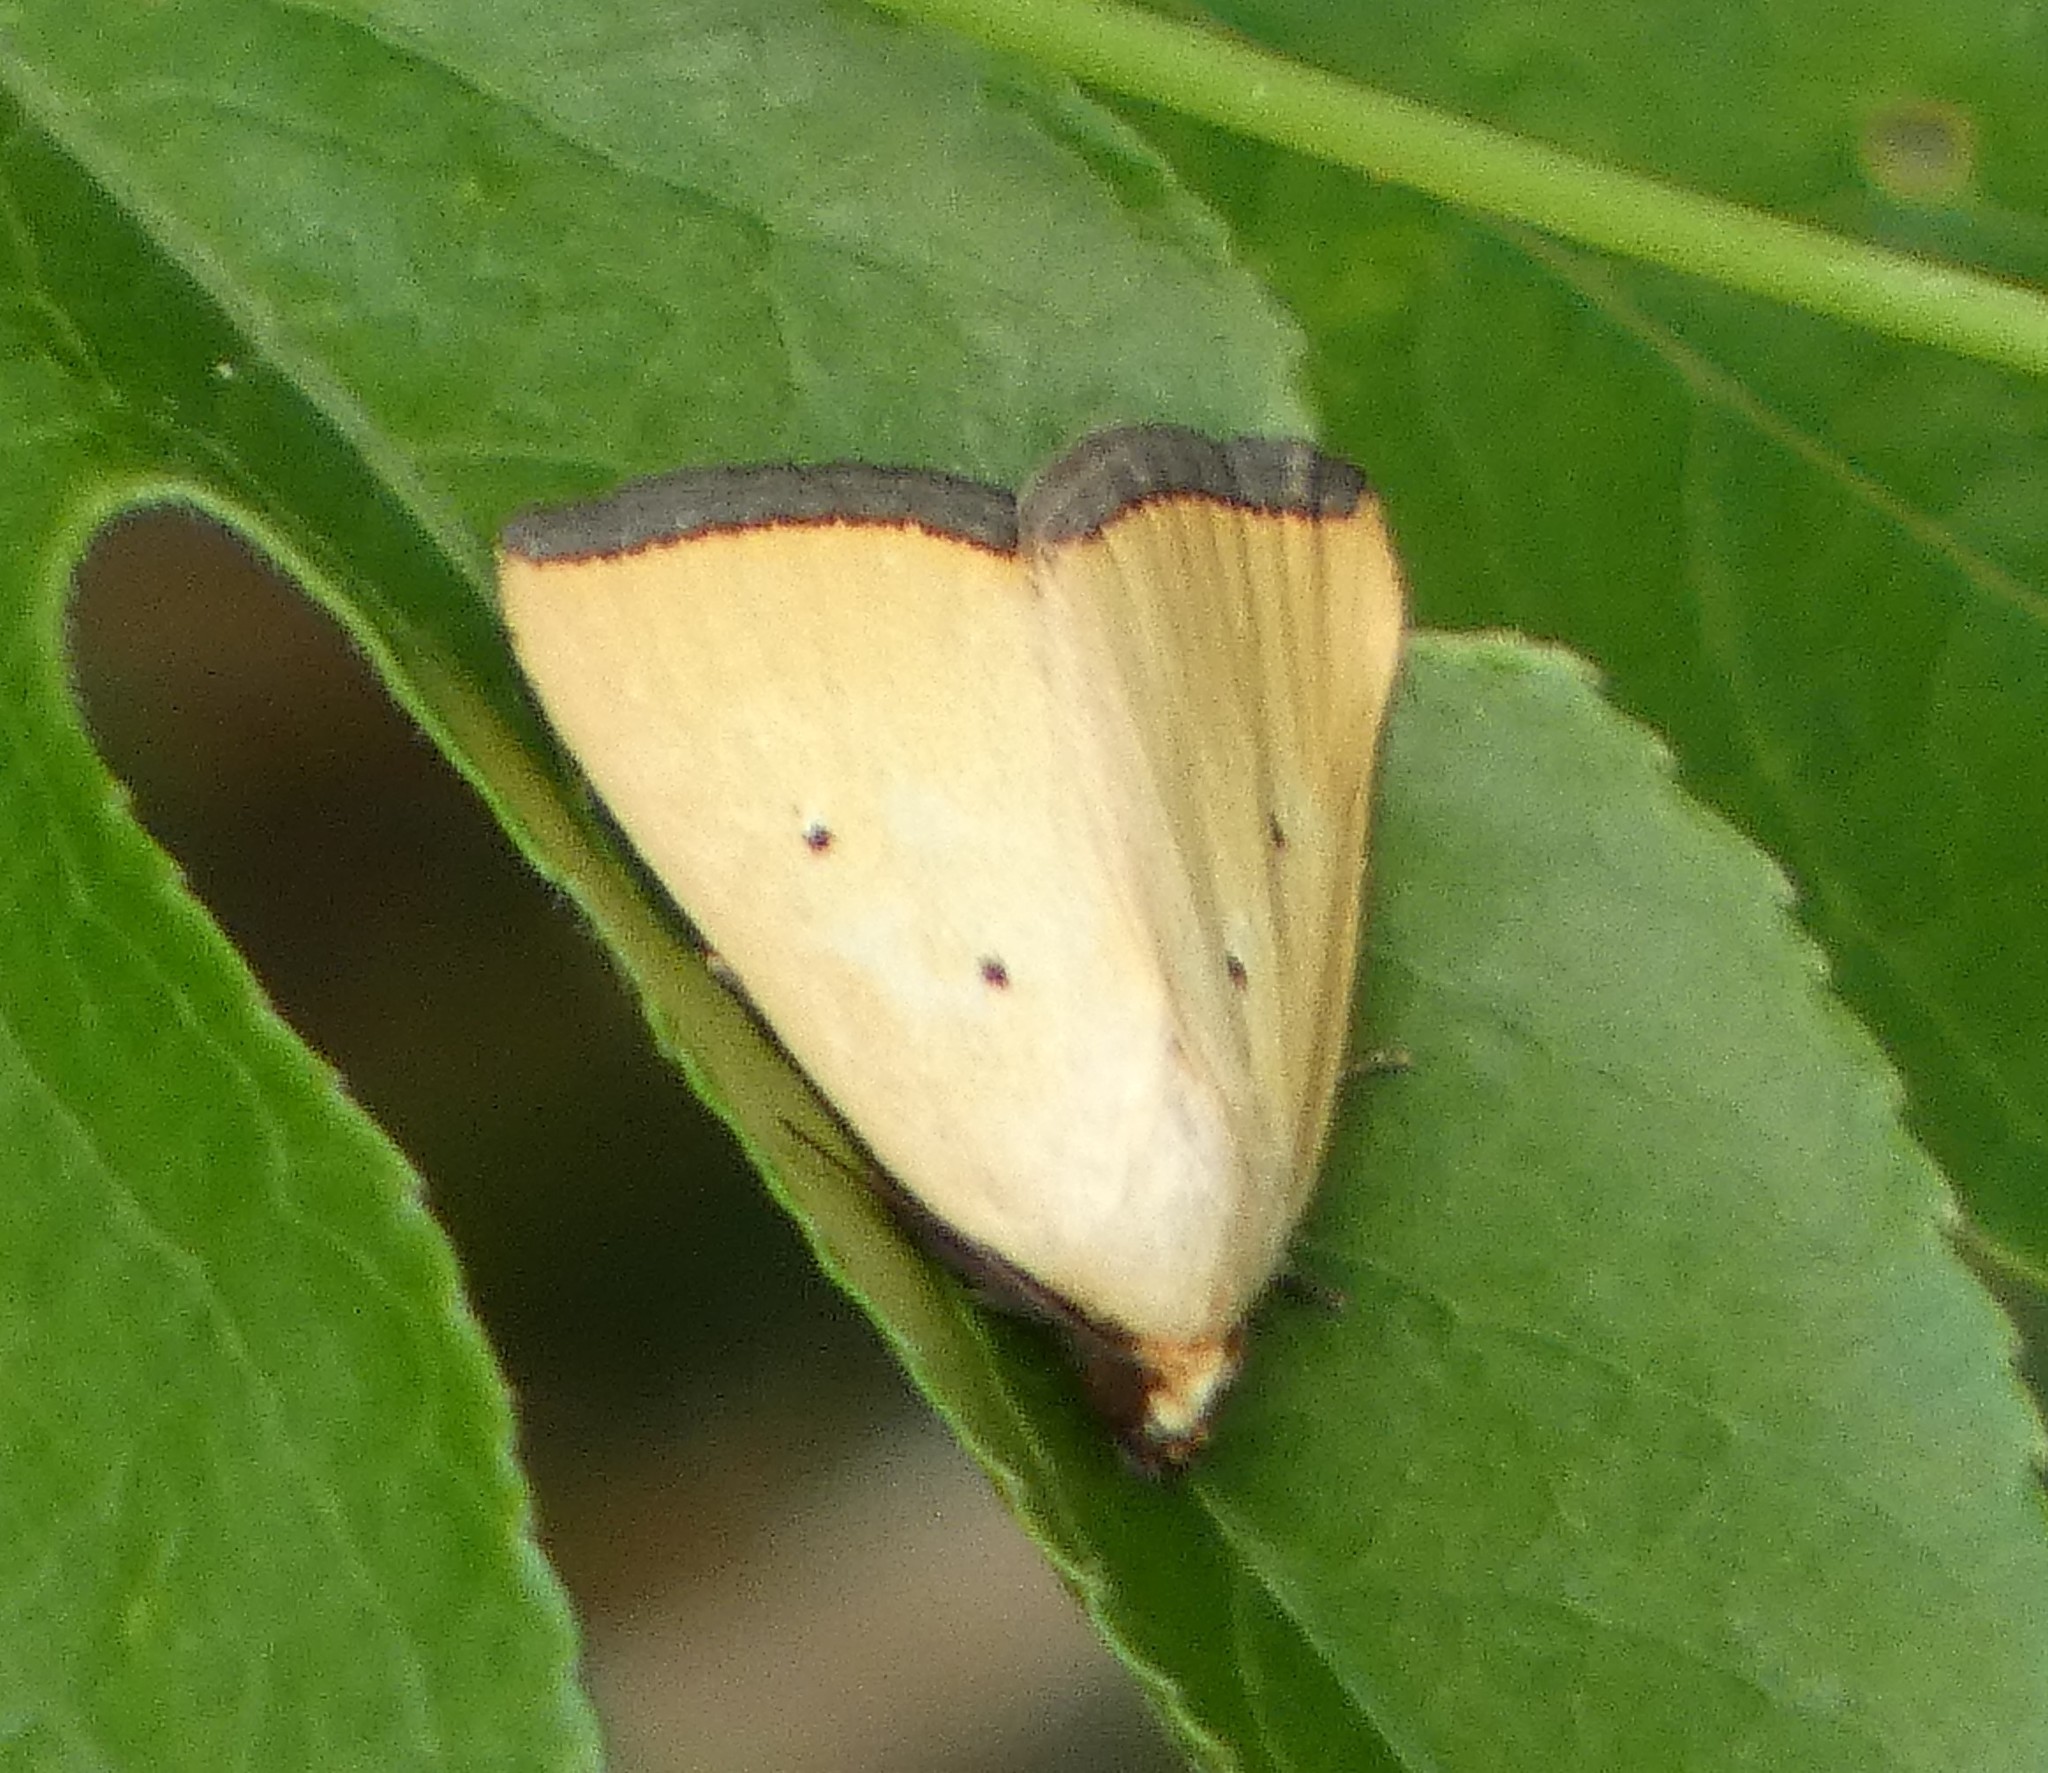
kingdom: Animalia
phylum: Arthropoda
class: Insecta
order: Lepidoptera
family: Noctuidae
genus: Marimatha
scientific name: Marimatha nigrofimbria
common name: Black-bordered lemon moth
